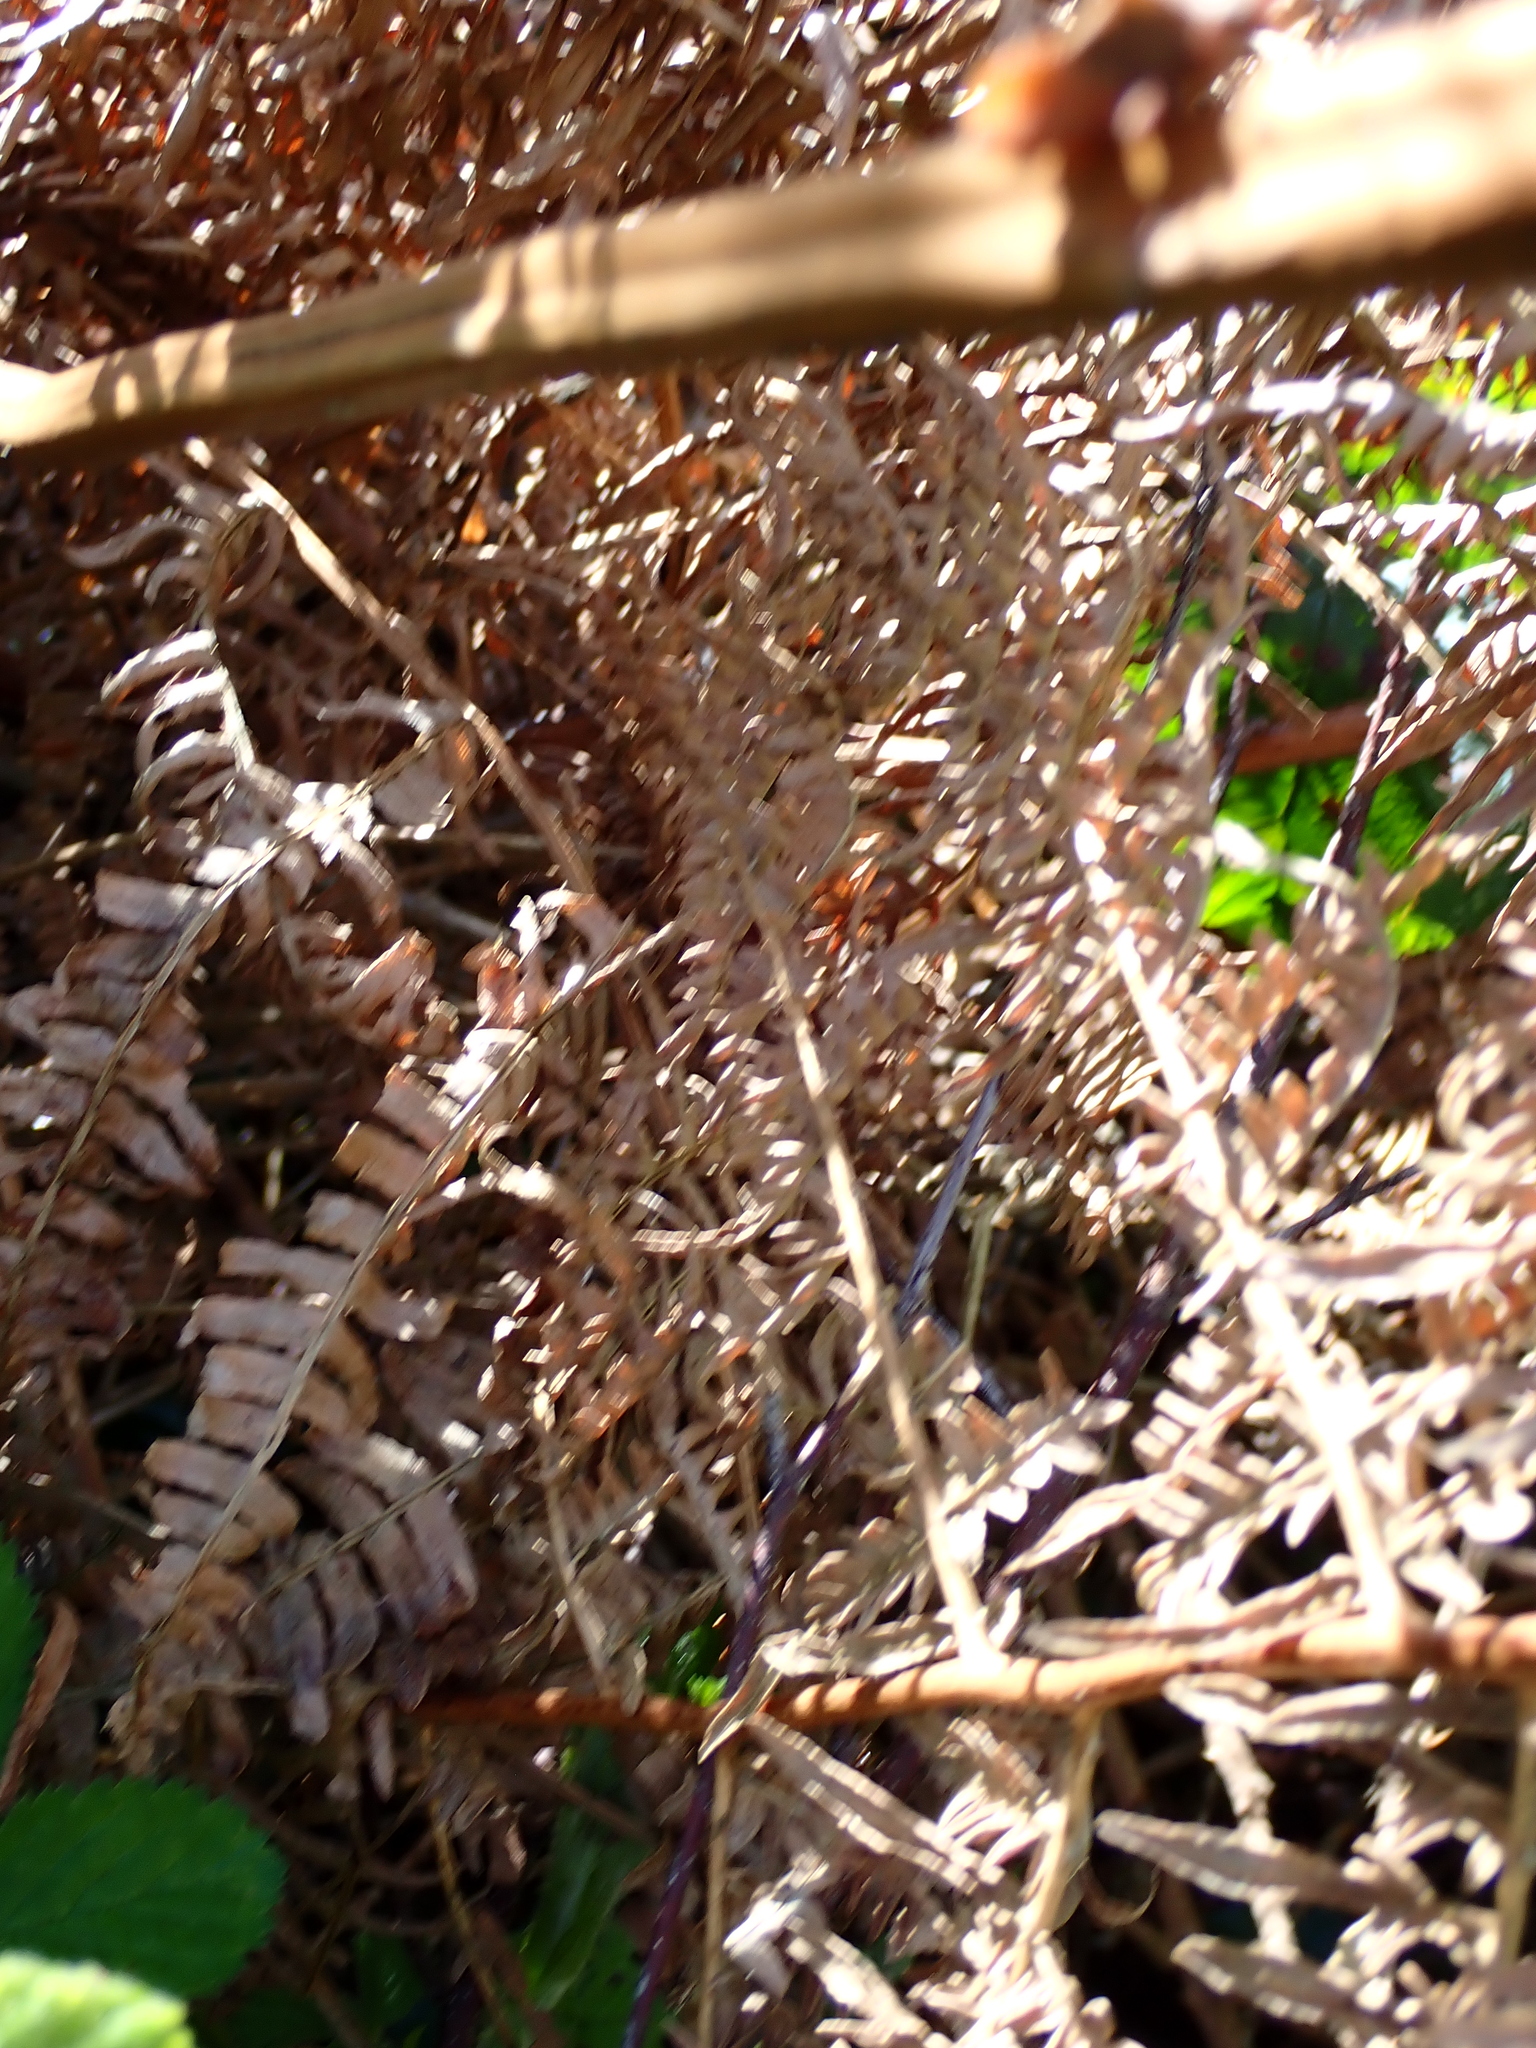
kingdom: Plantae
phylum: Tracheophyta
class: Polypodiopsida
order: Polypodiales
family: Dennstaedtiaceae
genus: Pteridium
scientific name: Pteridium aquilinum
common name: Bracken
